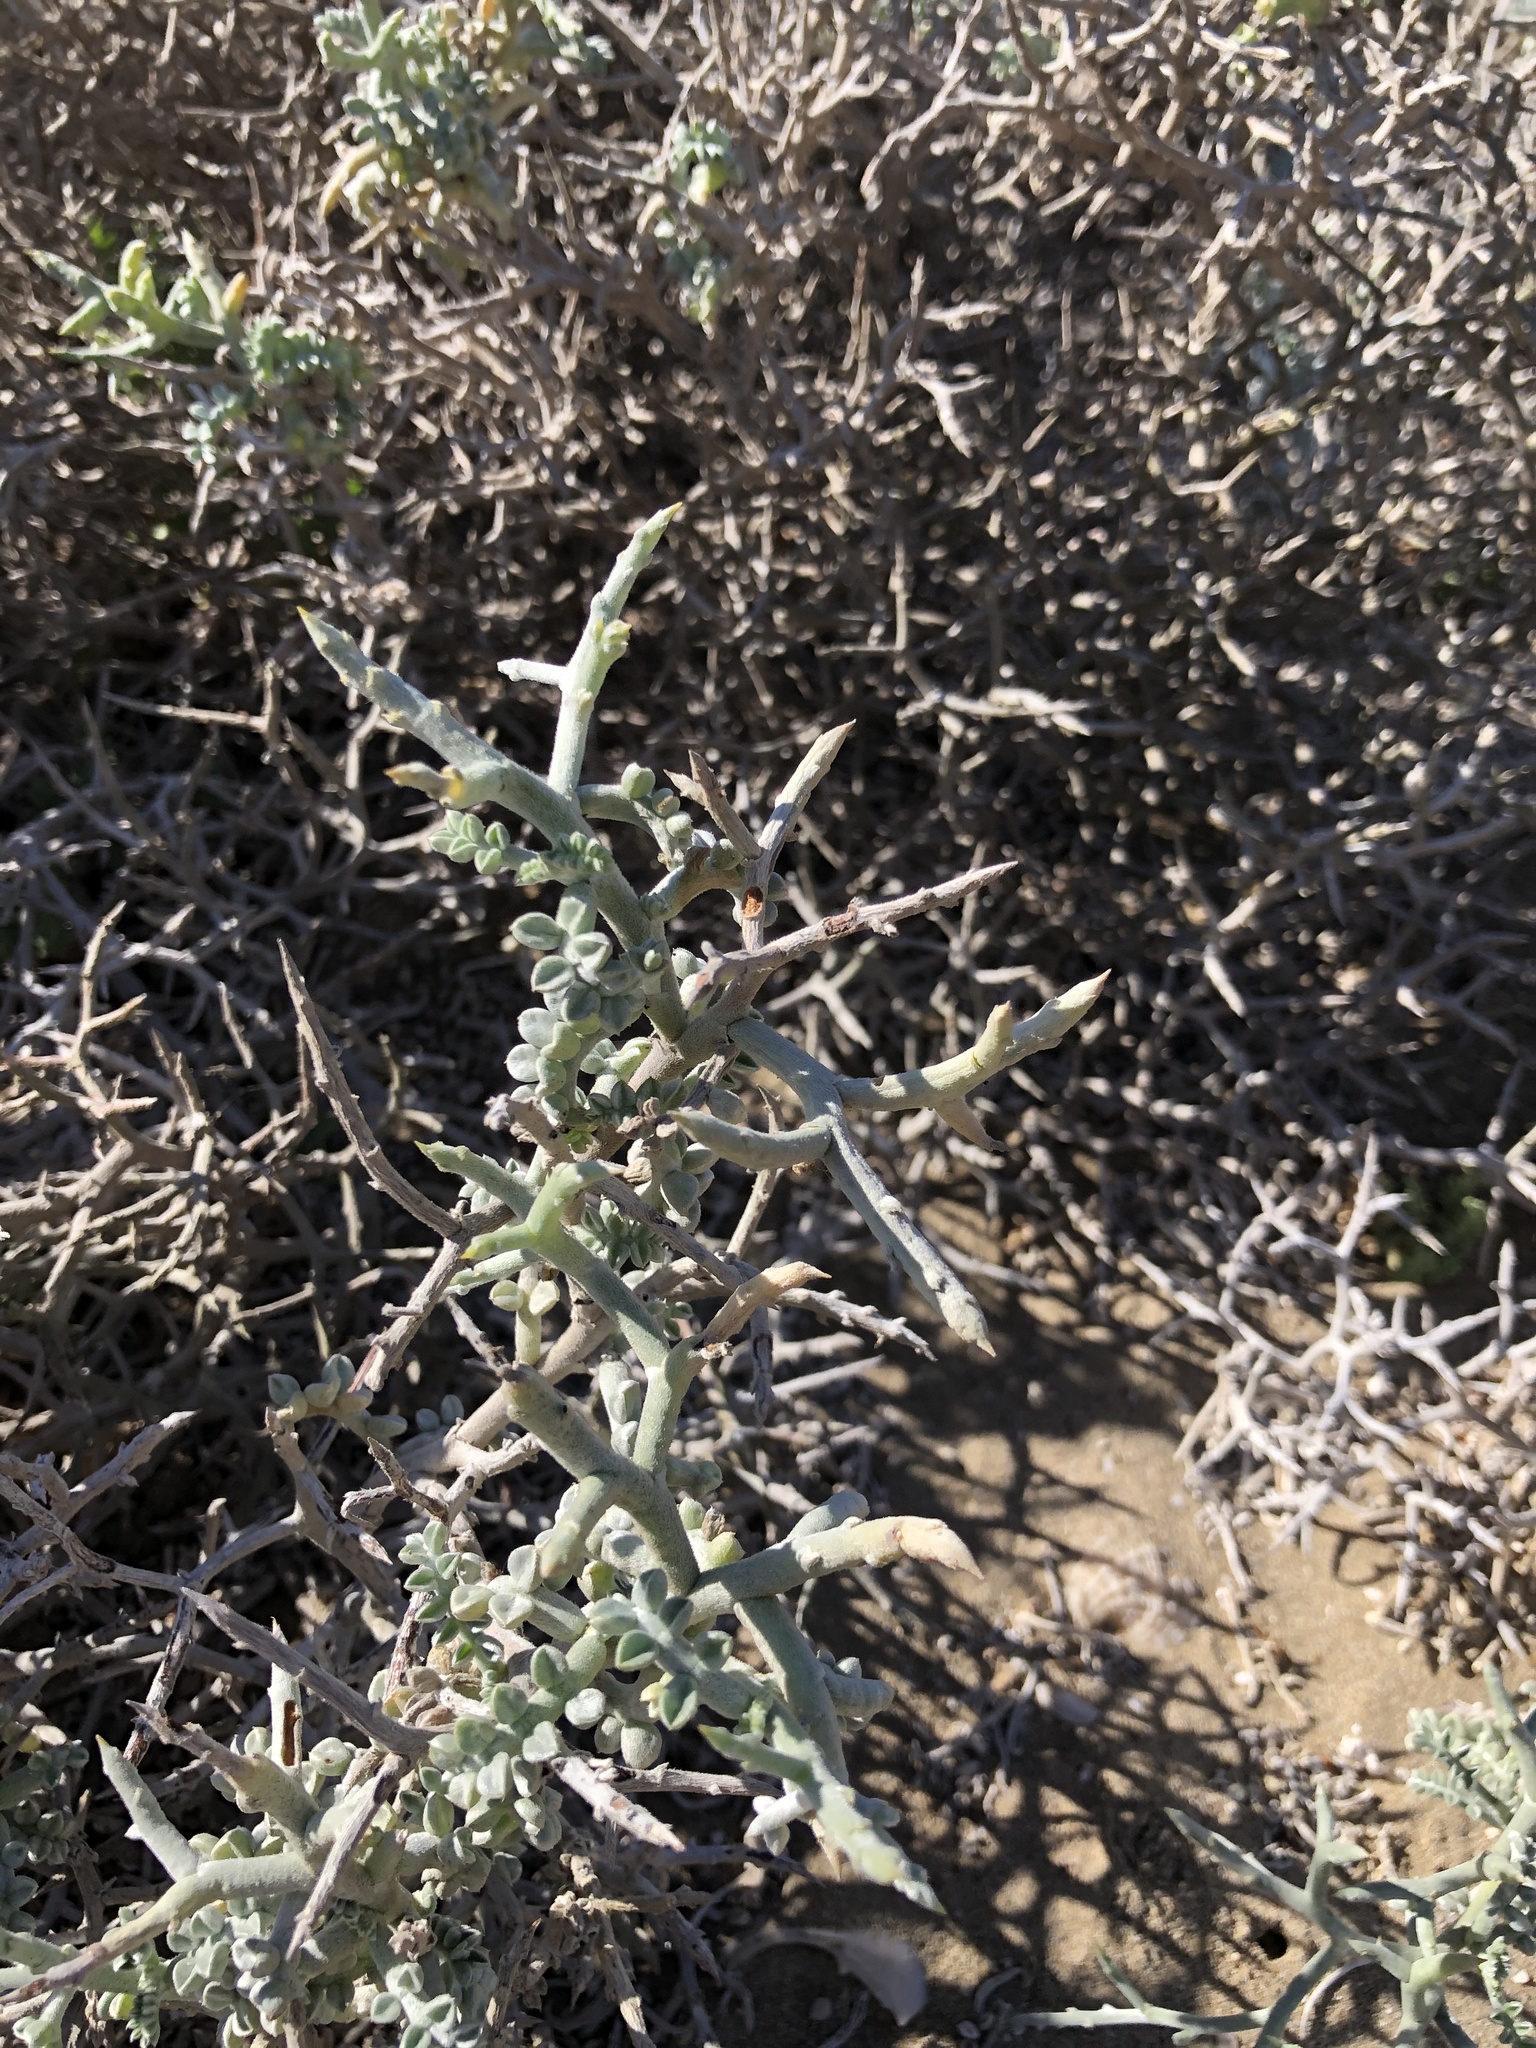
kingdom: Plantae
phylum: Tracheophyta
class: Magnoliopsida
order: Fabales
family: Fabaceae
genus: Adesmia
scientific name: Adesmia littoralis
